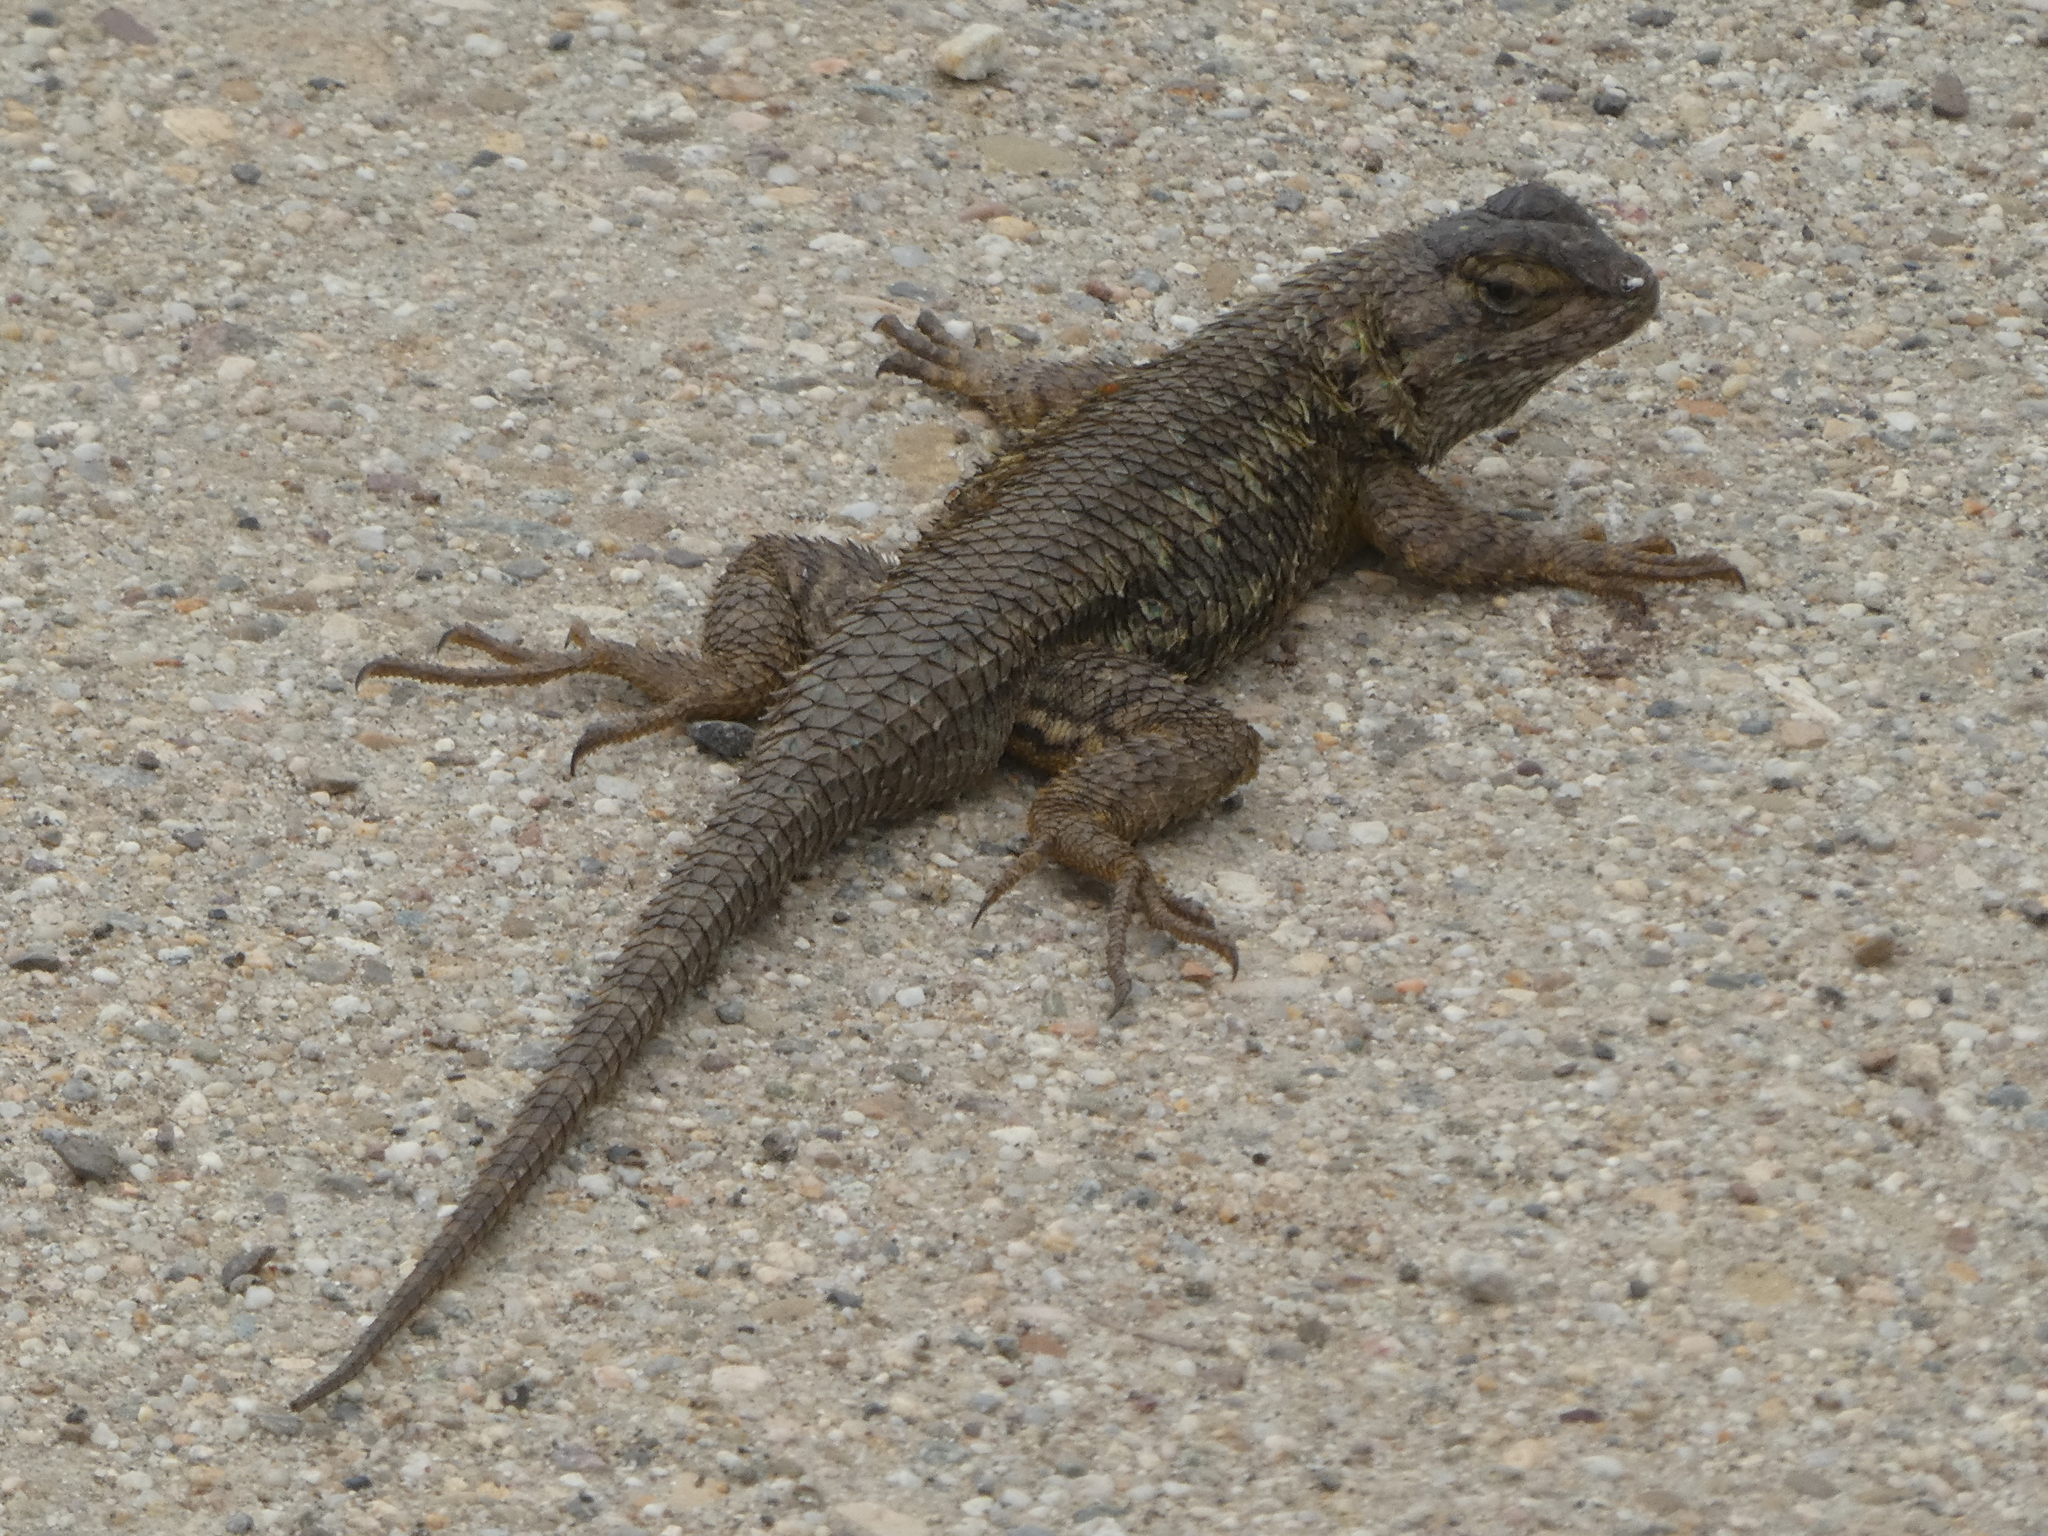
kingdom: Animalia
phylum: Chordata
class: Squamata
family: Phrynosomatidae
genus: Sceloporus
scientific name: Sceloporus occidentalis
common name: Western fence lizard
